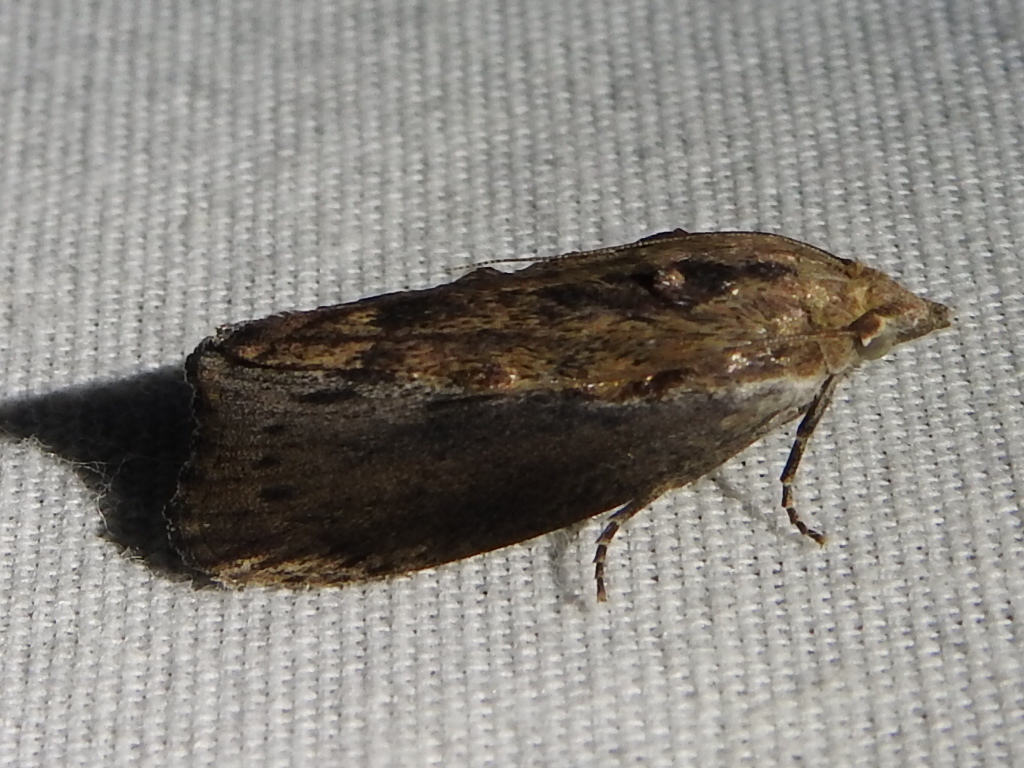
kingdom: Animalia
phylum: Arthropoda
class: Insecta
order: Lepidoptera
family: Pyralidae
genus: Galleria
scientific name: Galleria mellonella
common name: Greater wax moth
